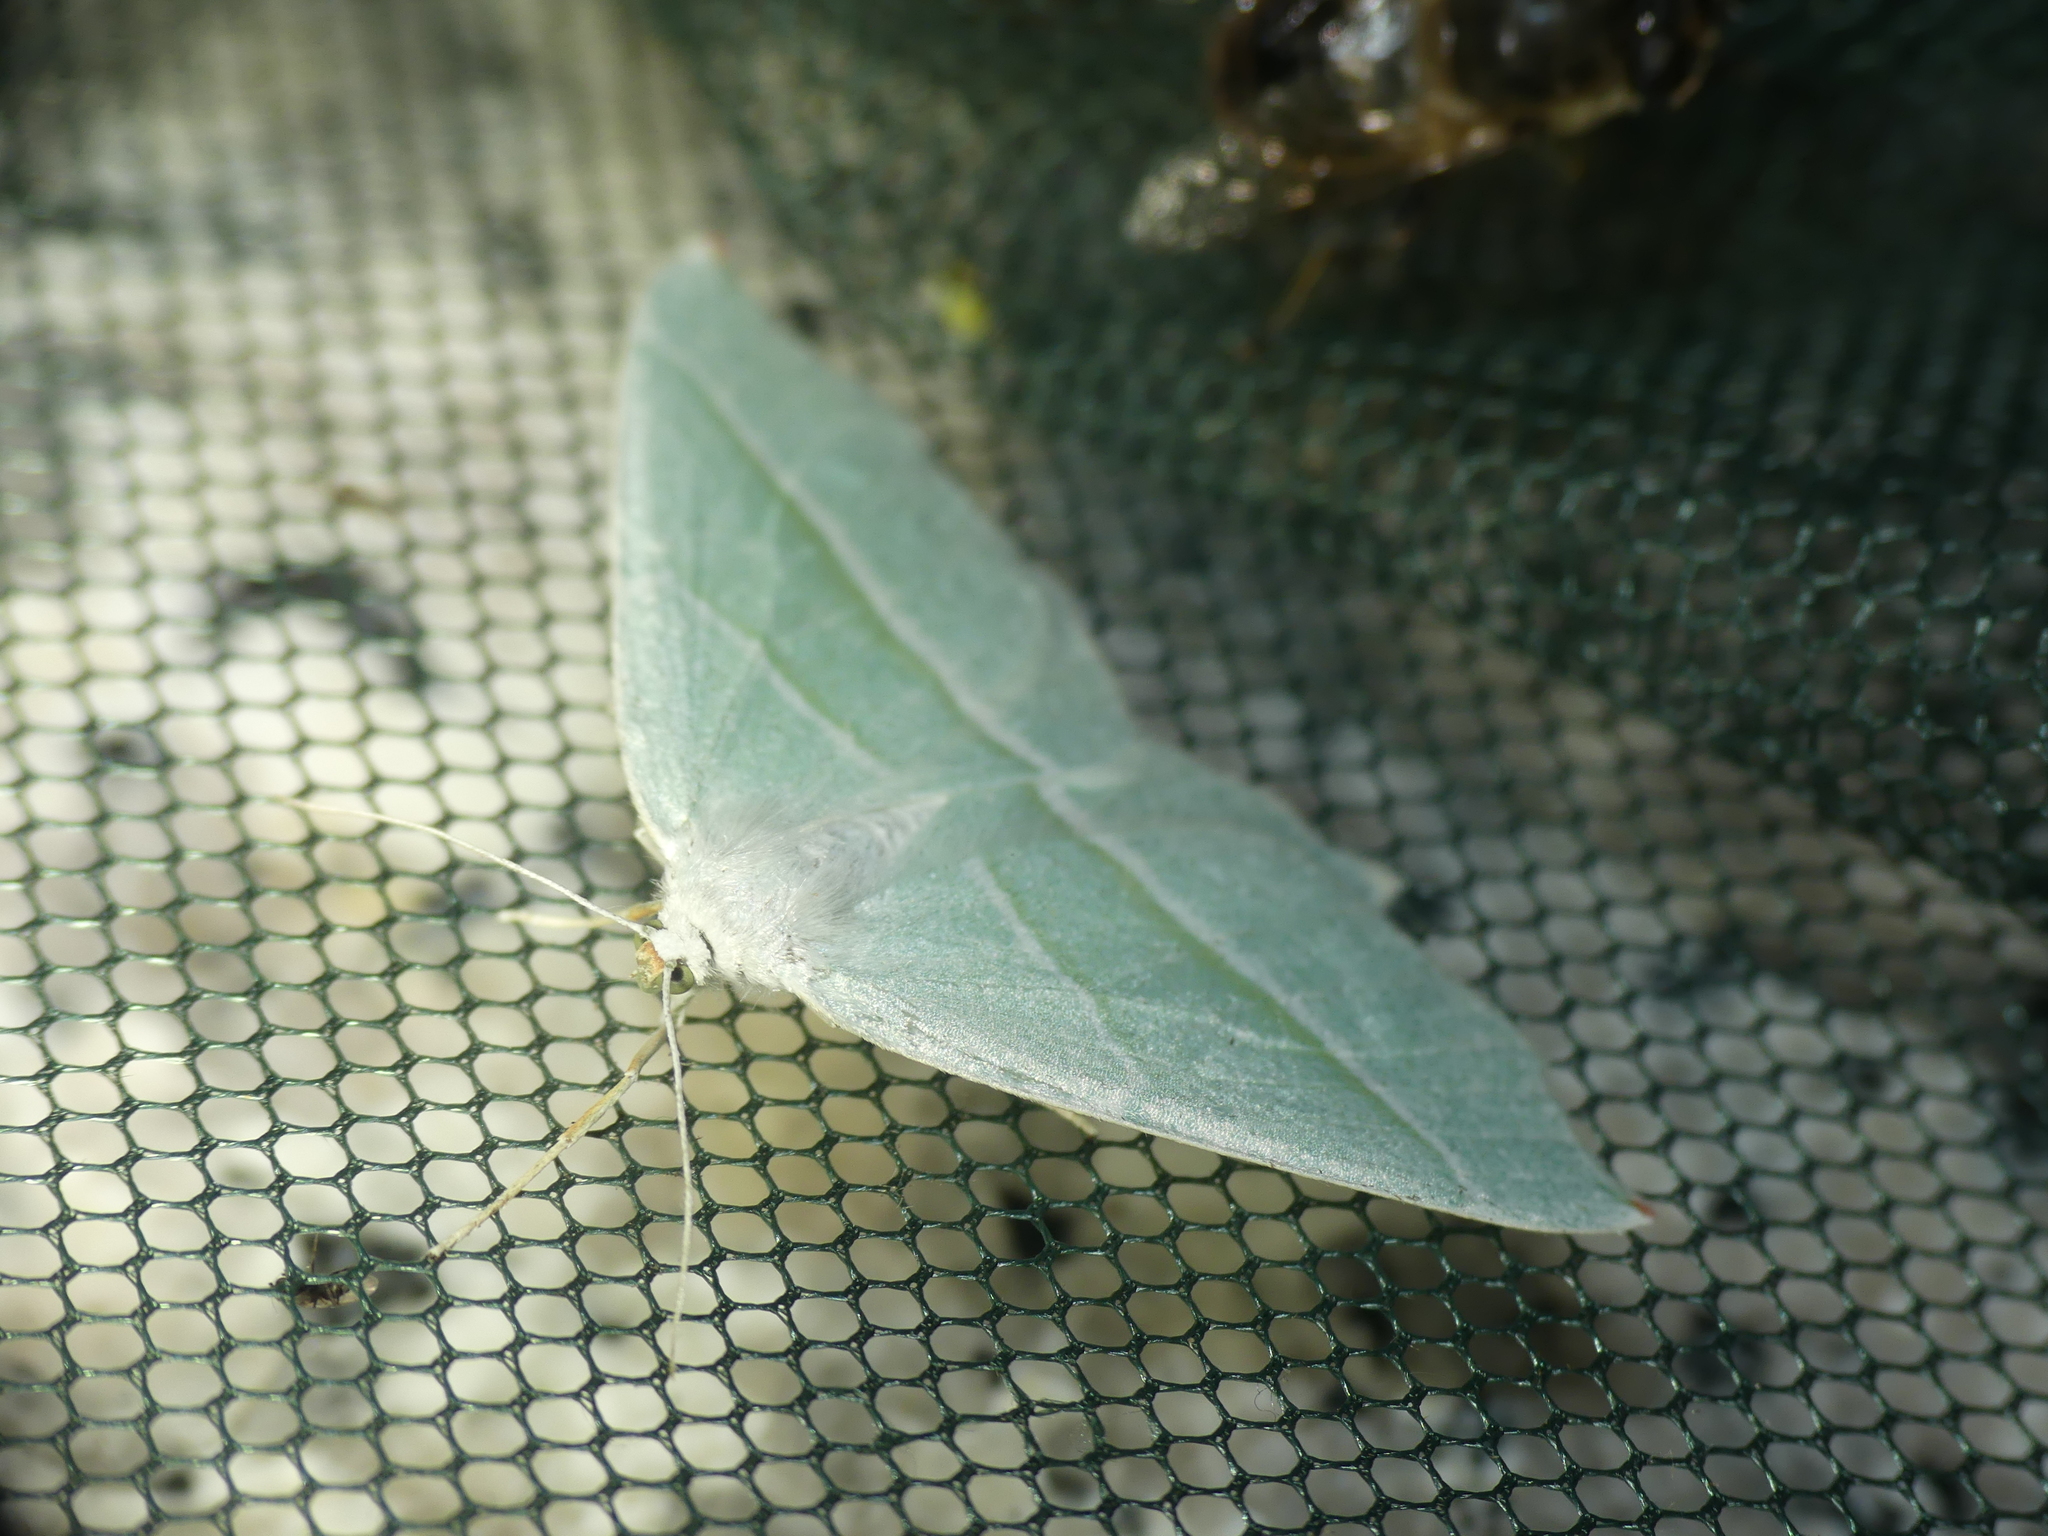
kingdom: Animalia
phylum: Arthropoda
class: Insecta
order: Lepidoptera
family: Geometridae
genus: Campaea
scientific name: Campaea margaritaria
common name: Light emerald
